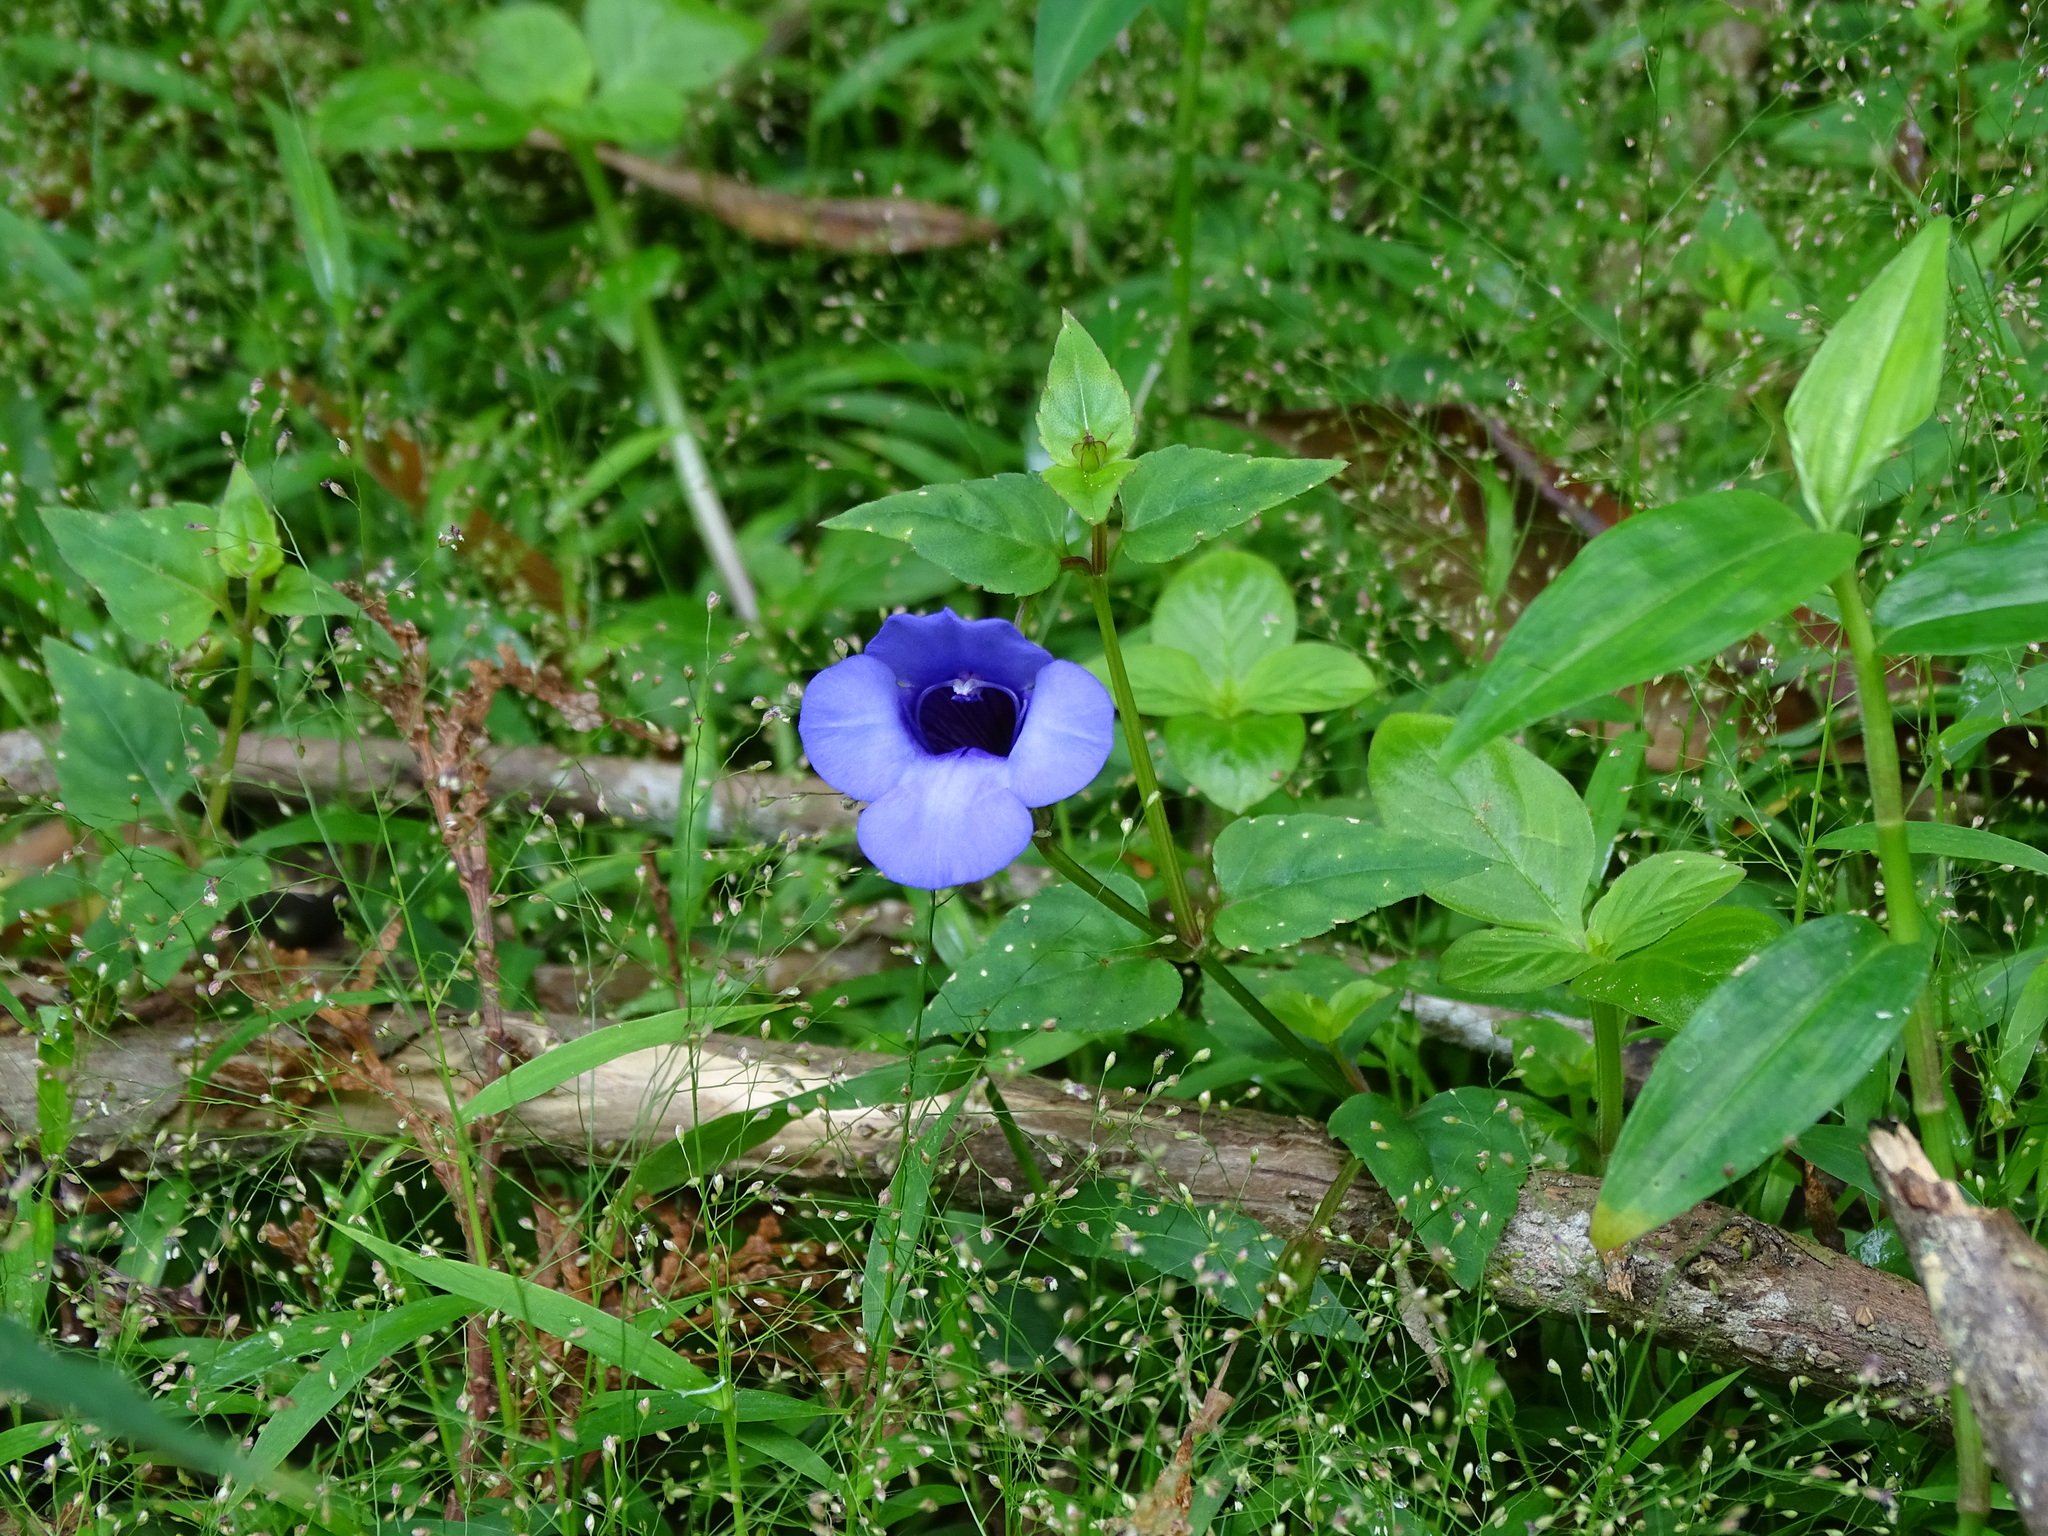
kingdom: Plantae
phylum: Tracheophyta
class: Magnoliopsida
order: Lamiales
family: Linderniaceae
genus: Torenia
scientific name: Torenia concolor
